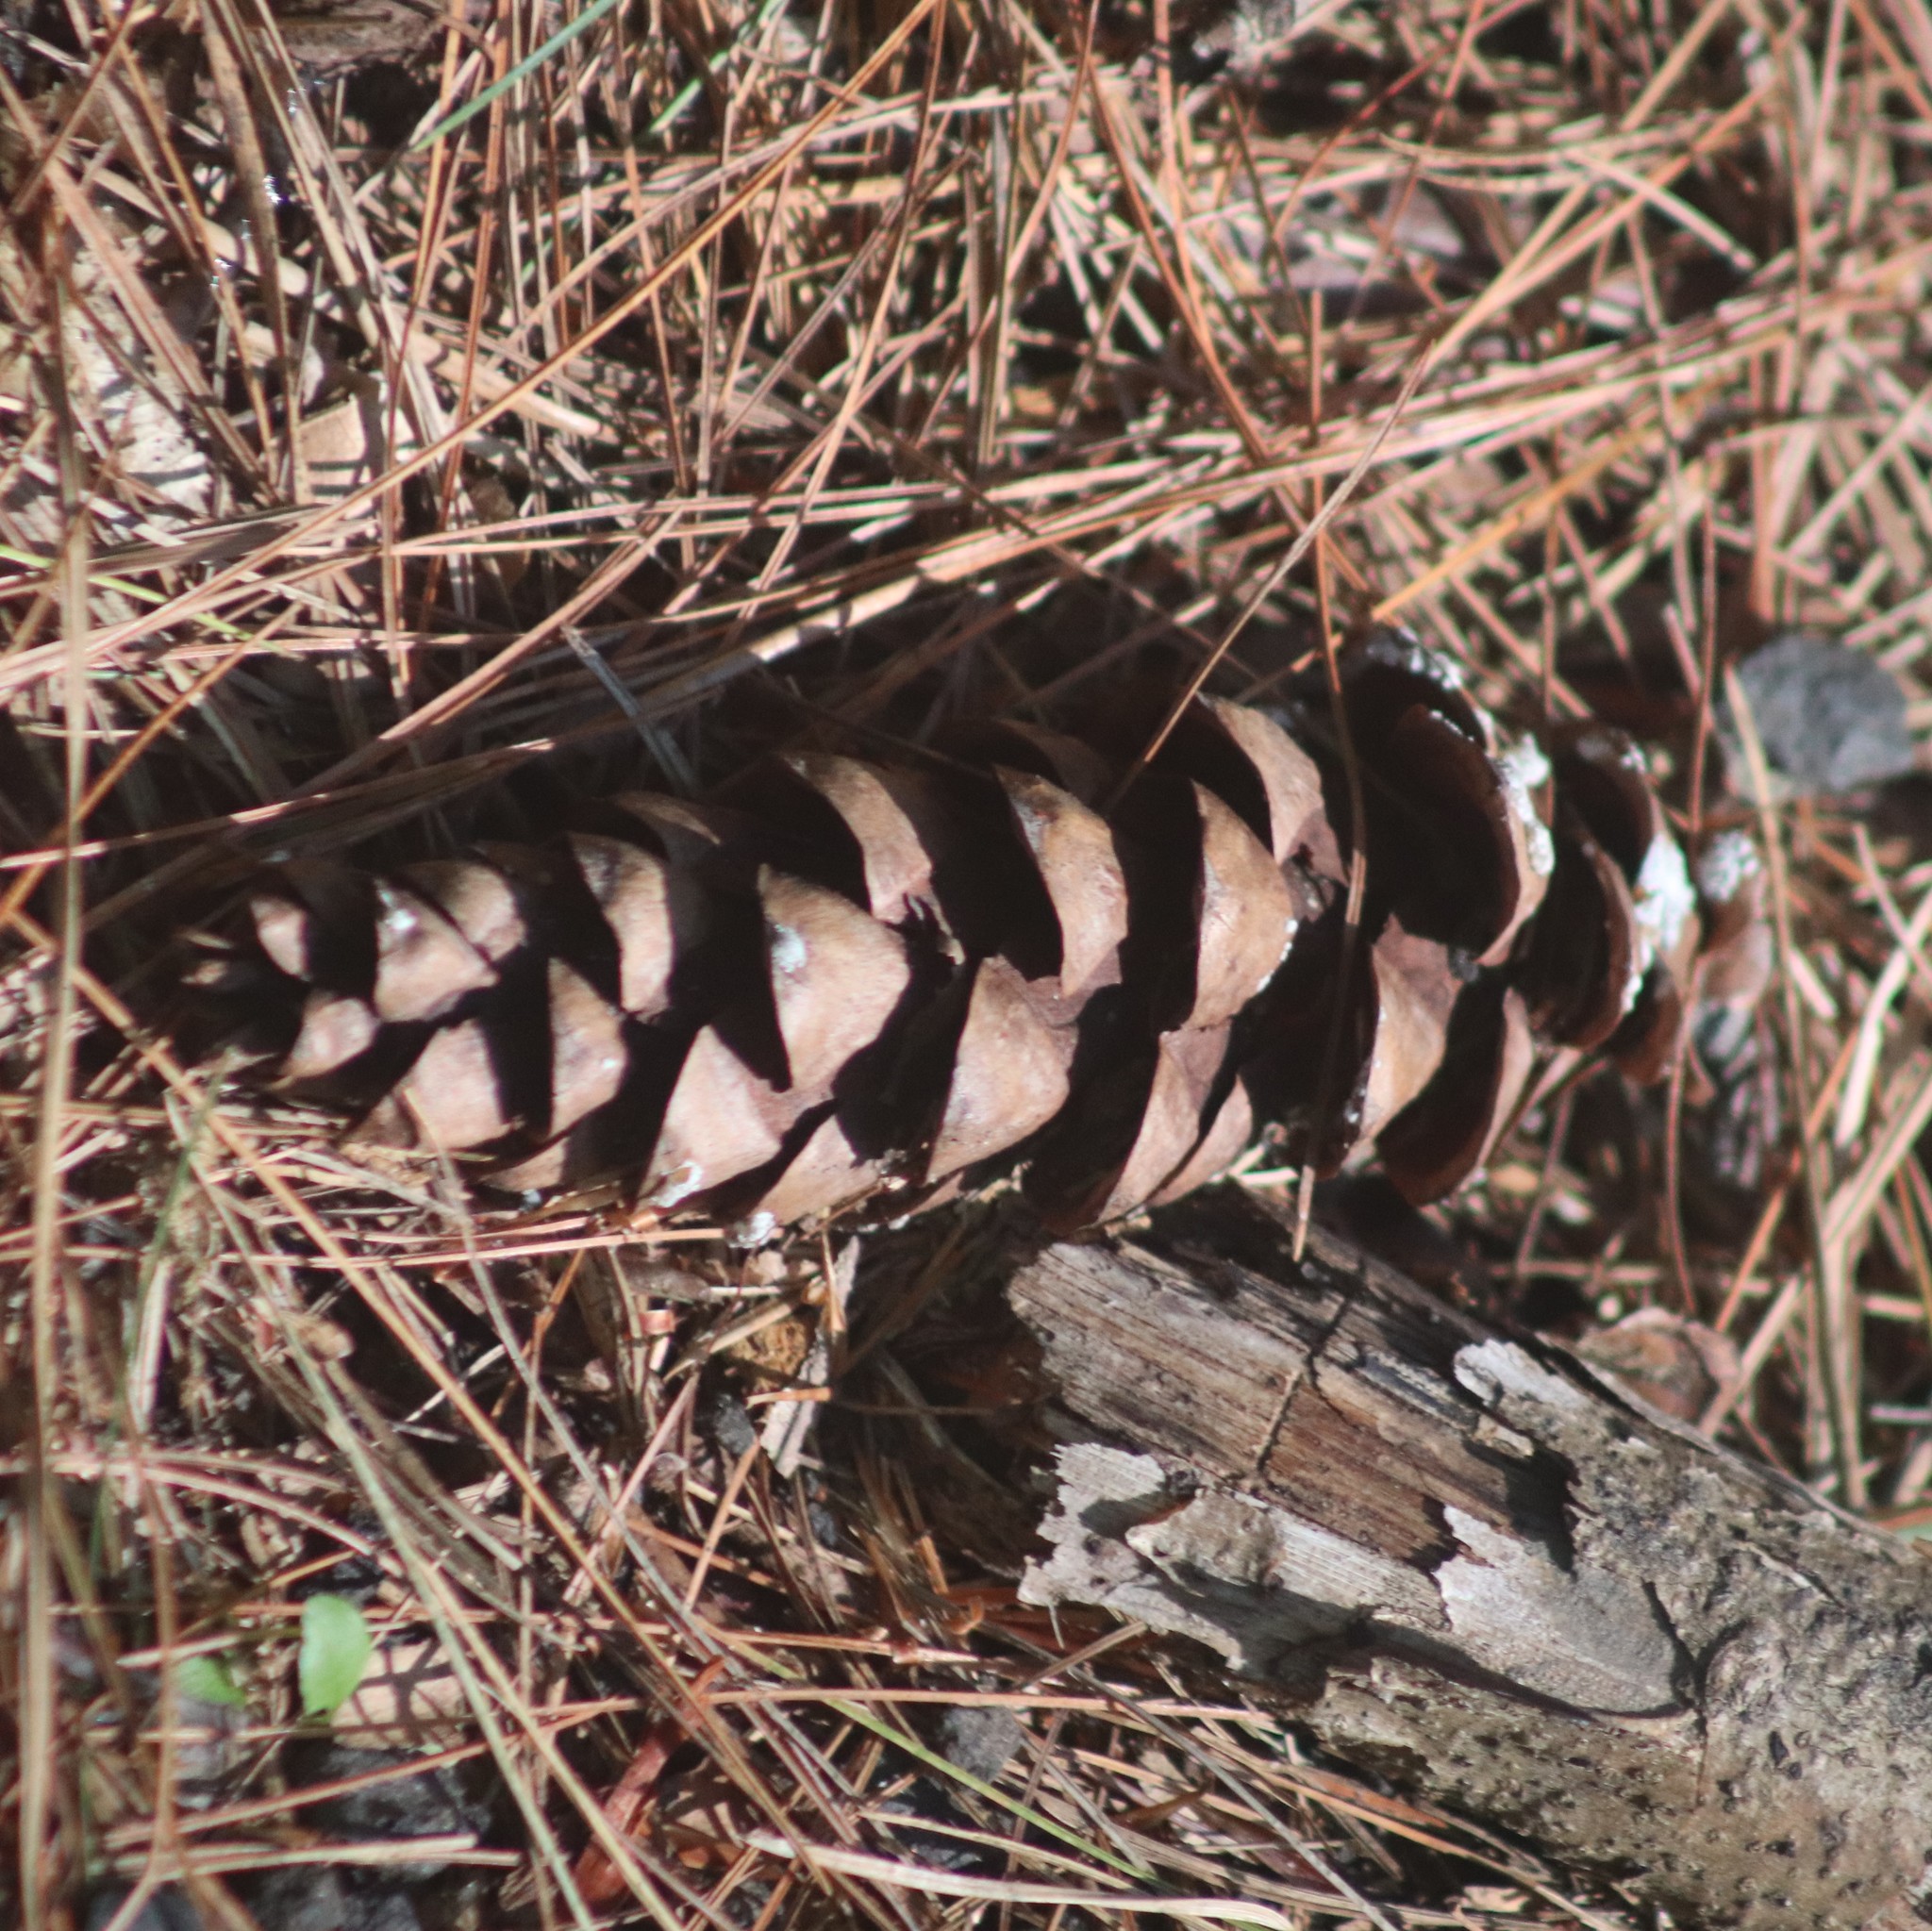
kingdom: Plantae
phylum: Tracheophyta
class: Pinopsida
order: Pinales
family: Pinaceae
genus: Pinus
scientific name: Pinus strobus
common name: Weymouth pine
